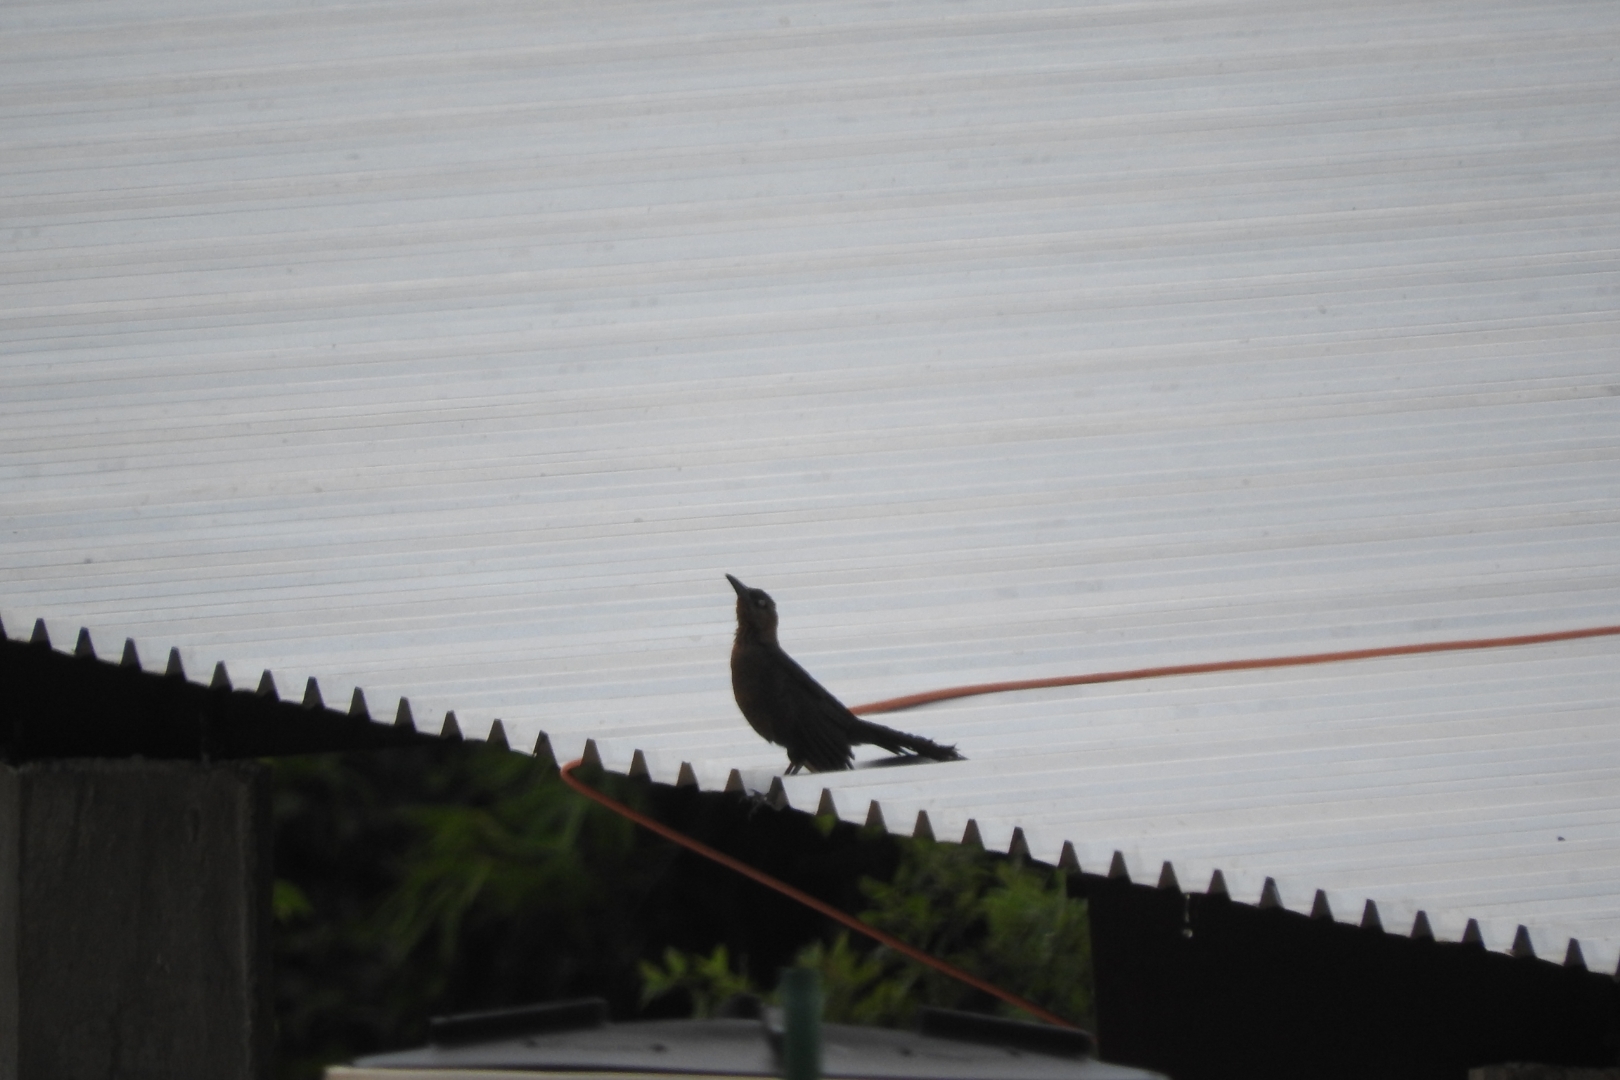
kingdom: Animalia
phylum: Chordata
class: Aves
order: Passeriformes
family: Icteridae
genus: Quiscalus
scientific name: Quiscalus mexicanus
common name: Great-tailed grackle
